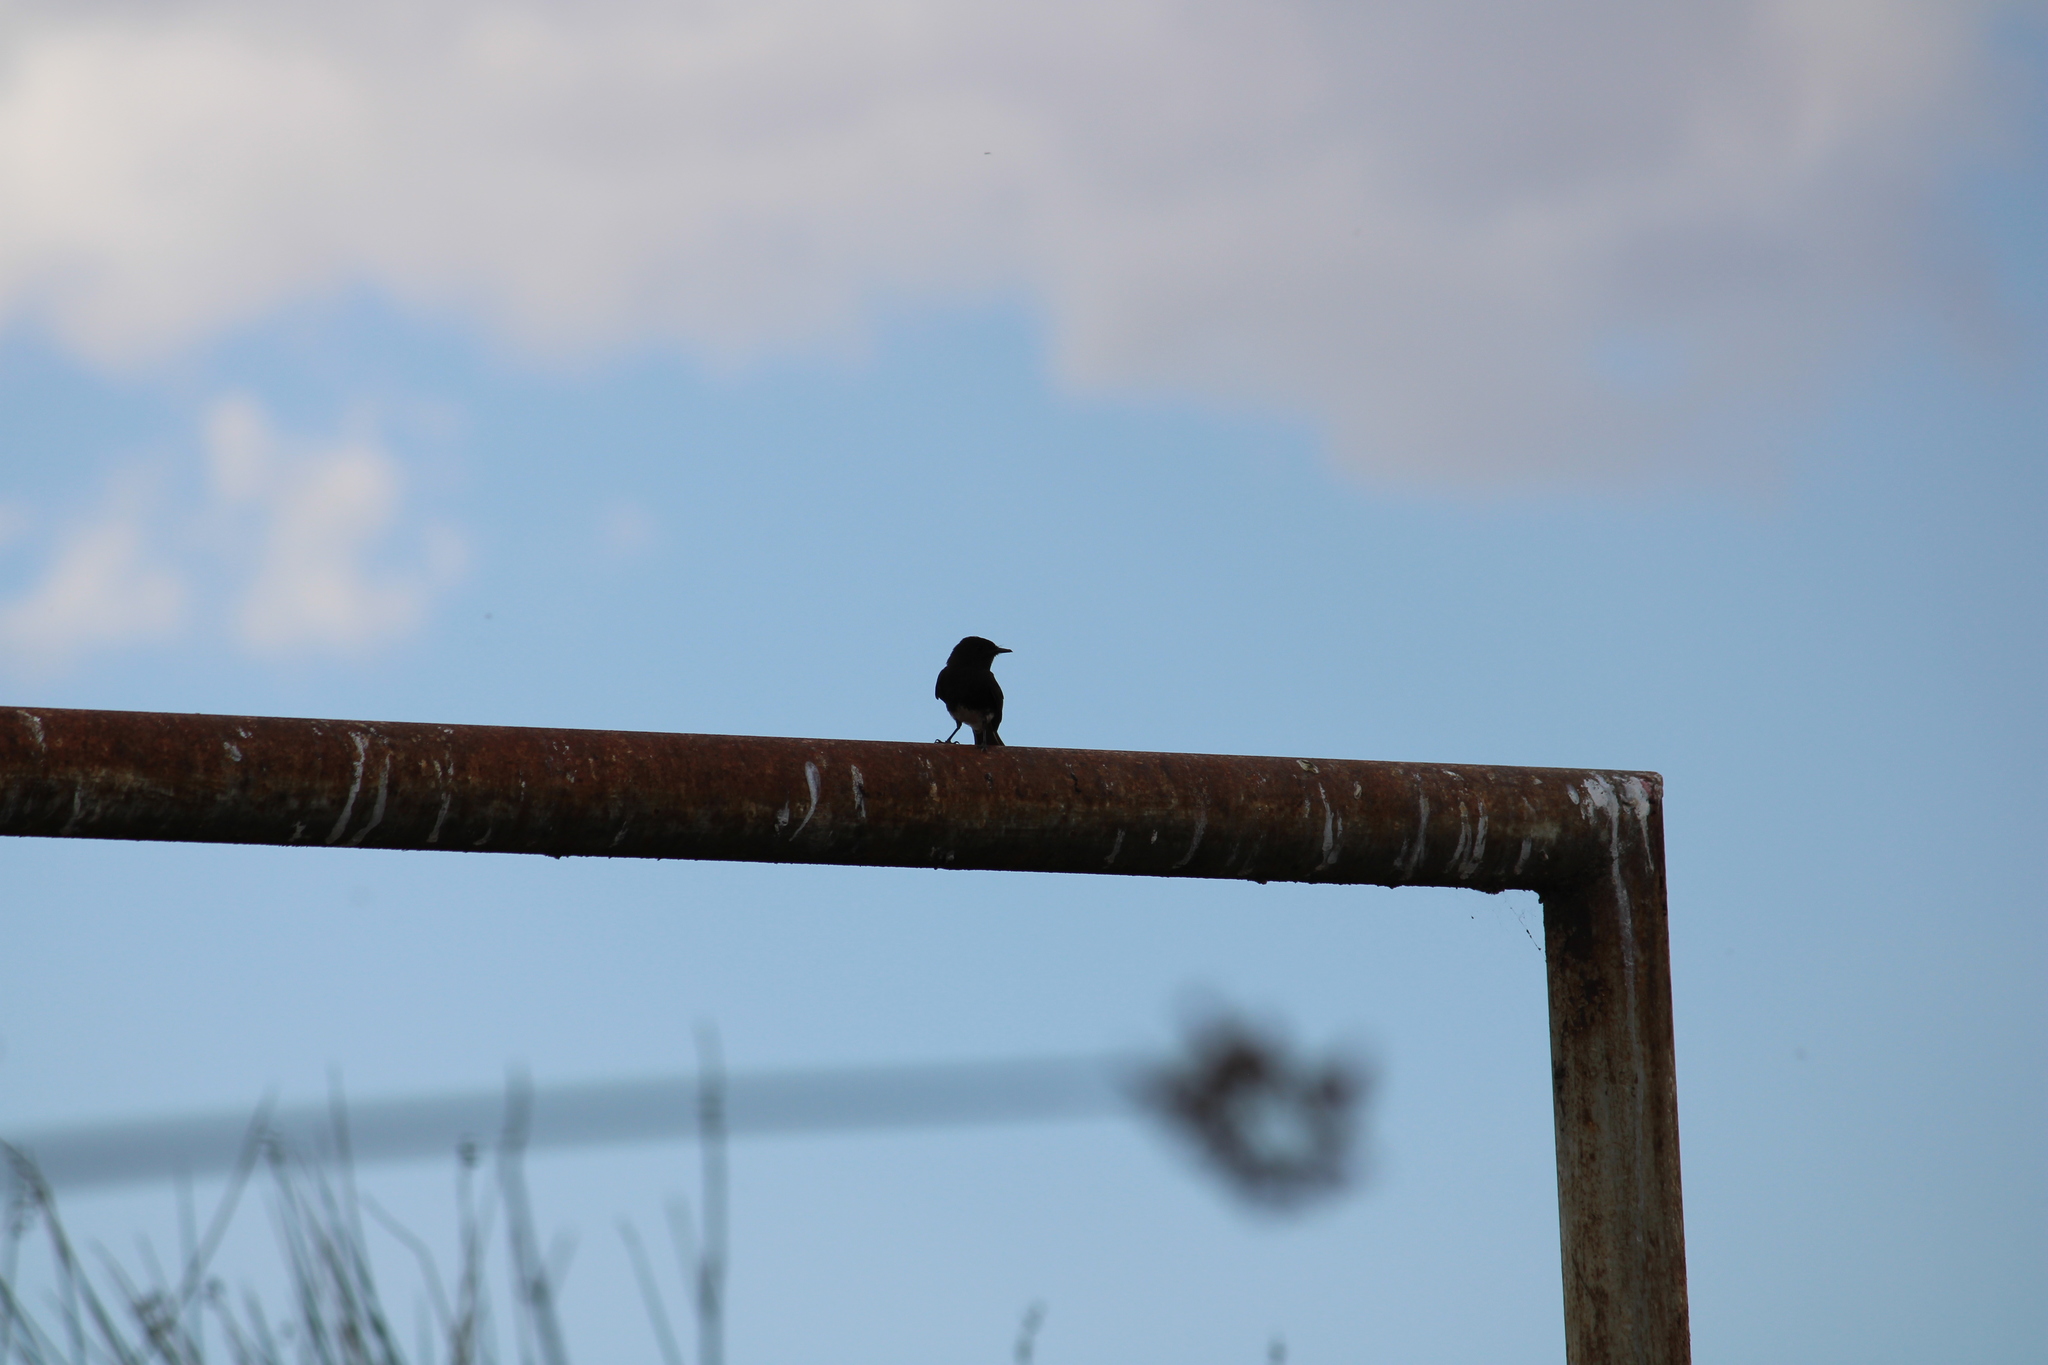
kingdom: Animalia
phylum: Chordata
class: Aves
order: Passeriformes
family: Tyrannidae
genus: Sayornis
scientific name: Sayornis nigricans
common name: Black phoebe
